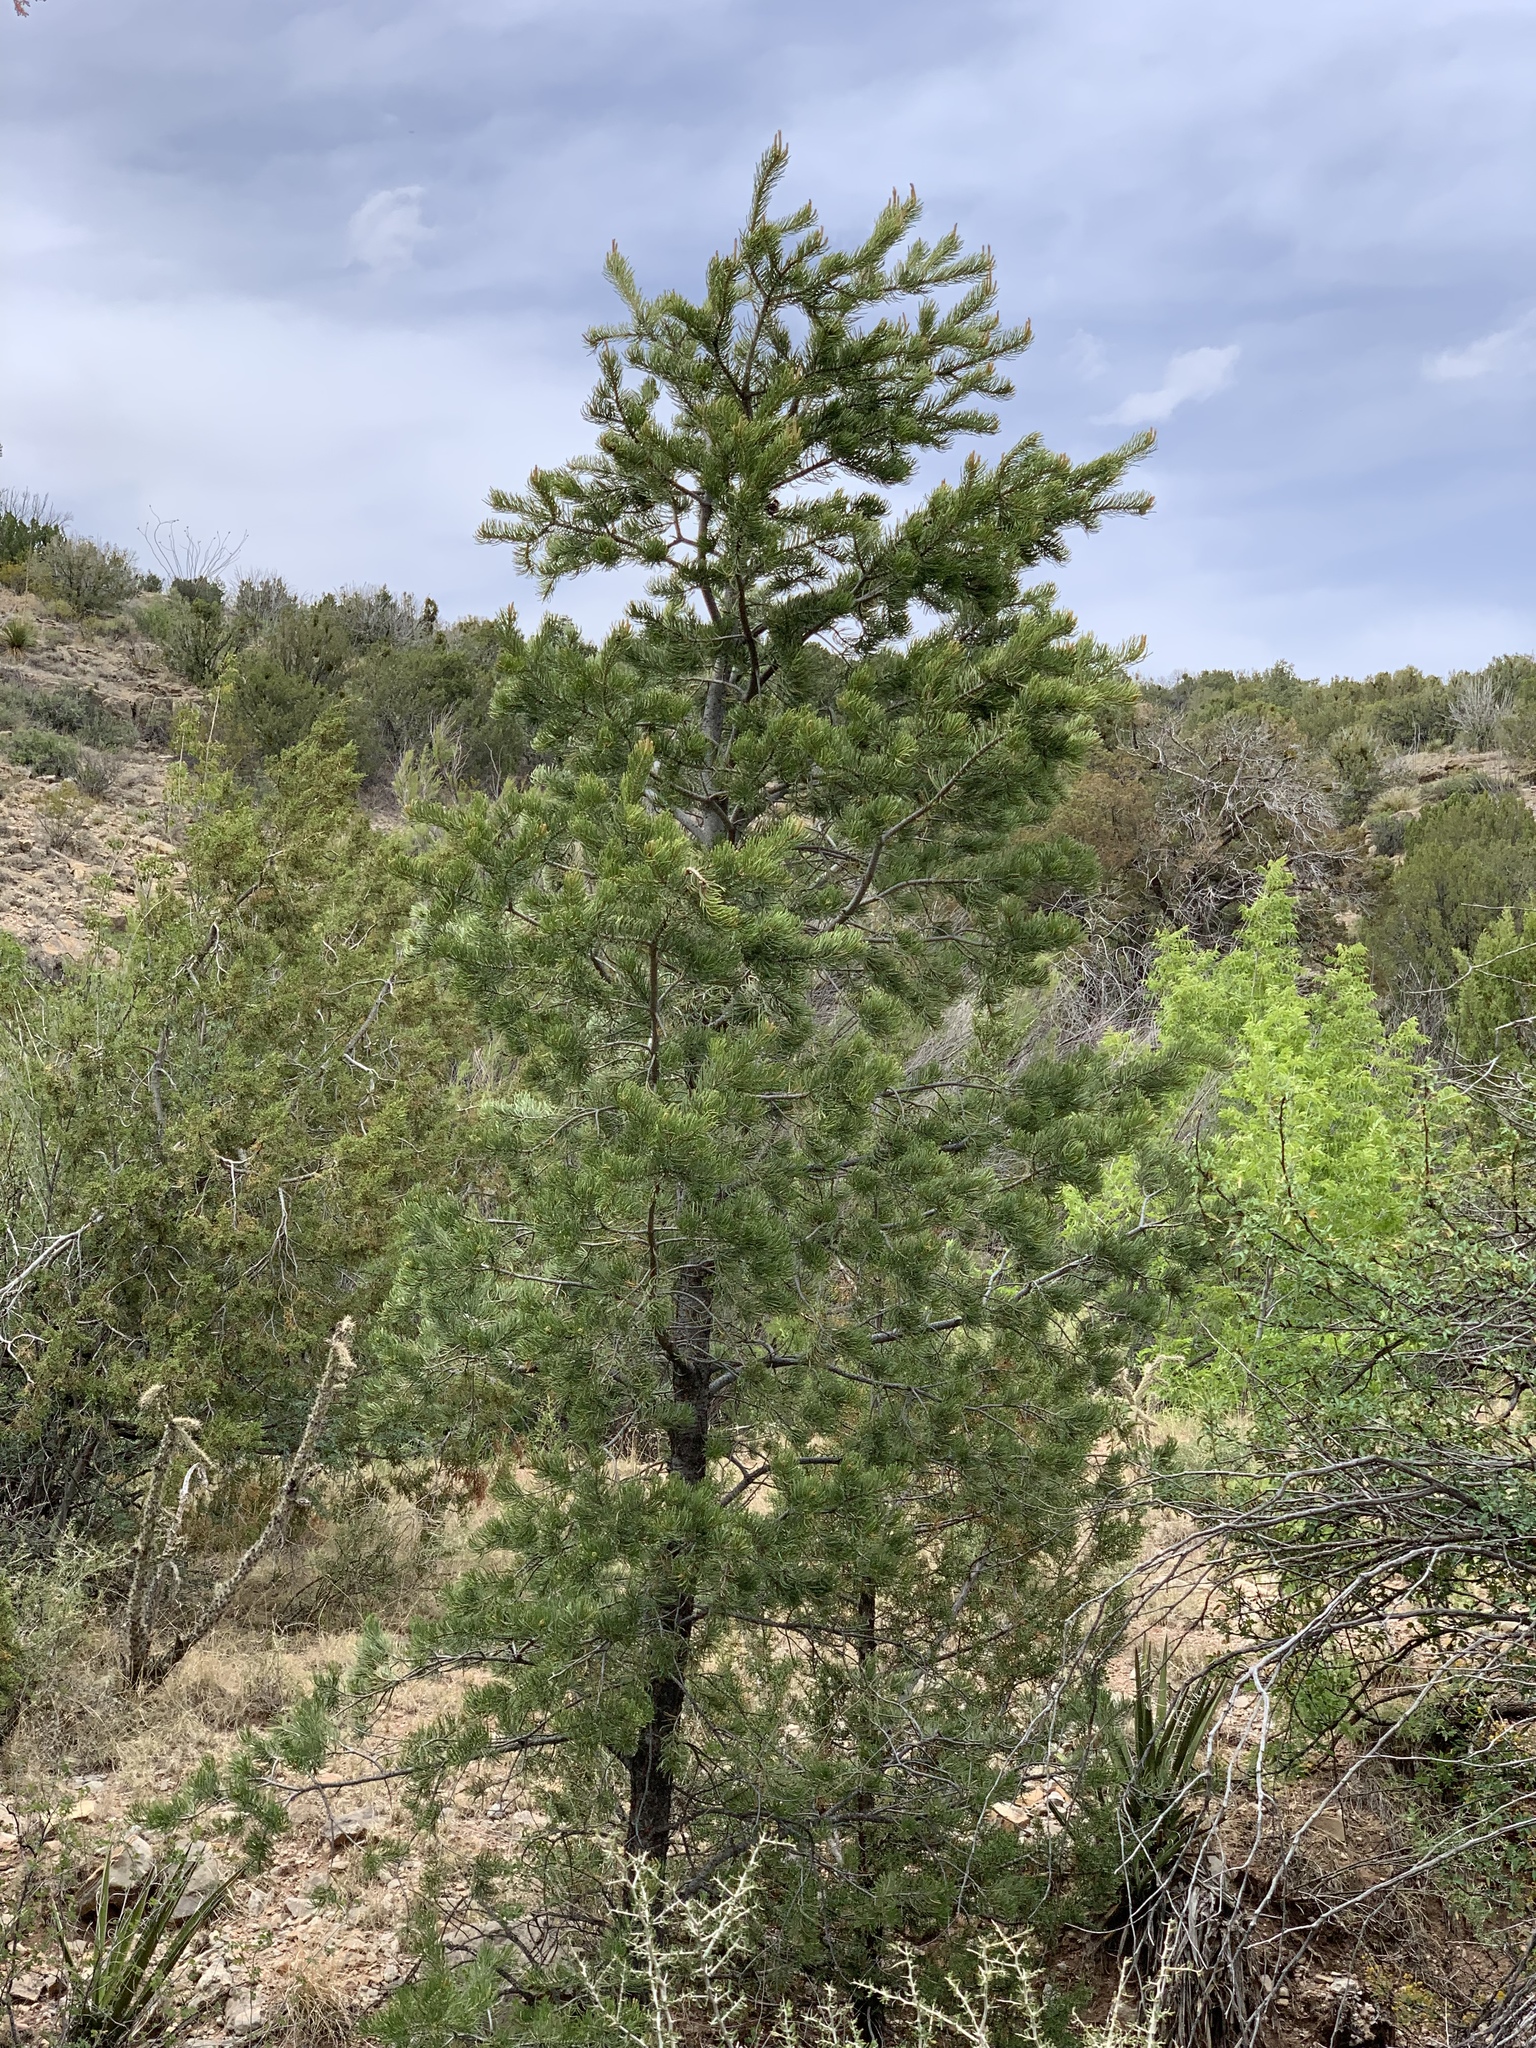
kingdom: Plantae
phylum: Tracheophyta
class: Pinopsida
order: Pinales
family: Pinaceae
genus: Pinus
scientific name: Pinus edulis
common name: Colorado pinyon
